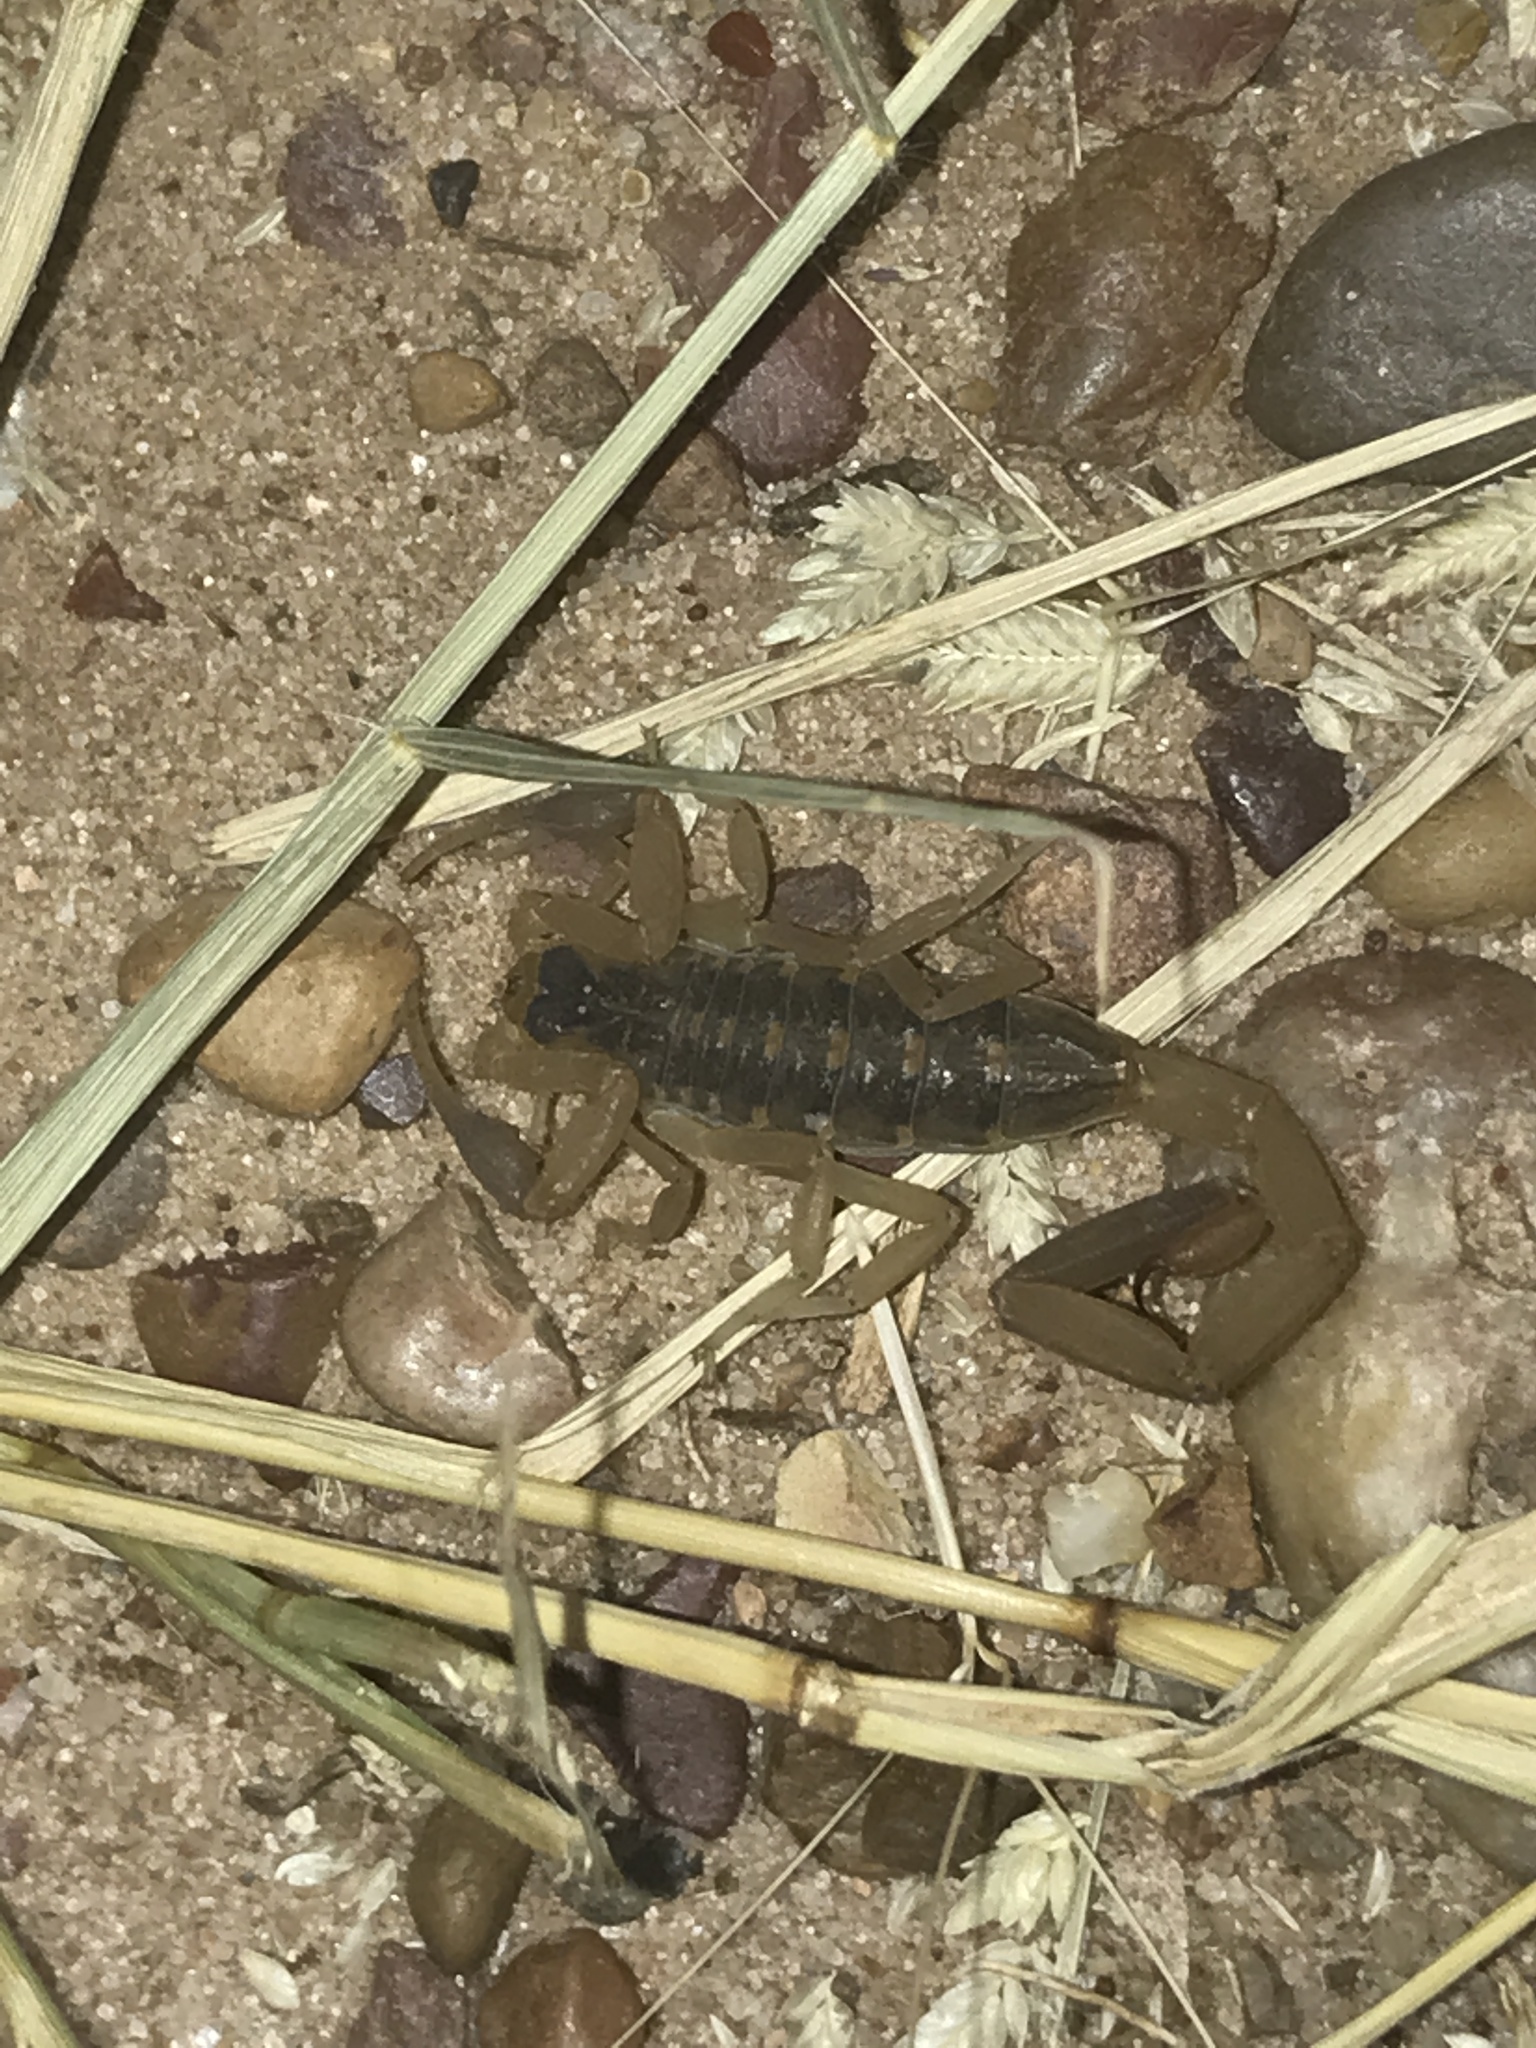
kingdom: Animalia
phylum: Arthropoda
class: Arachnida
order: Scorpiones
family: Buthidae
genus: Centruroides
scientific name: Centruroides vittatus
